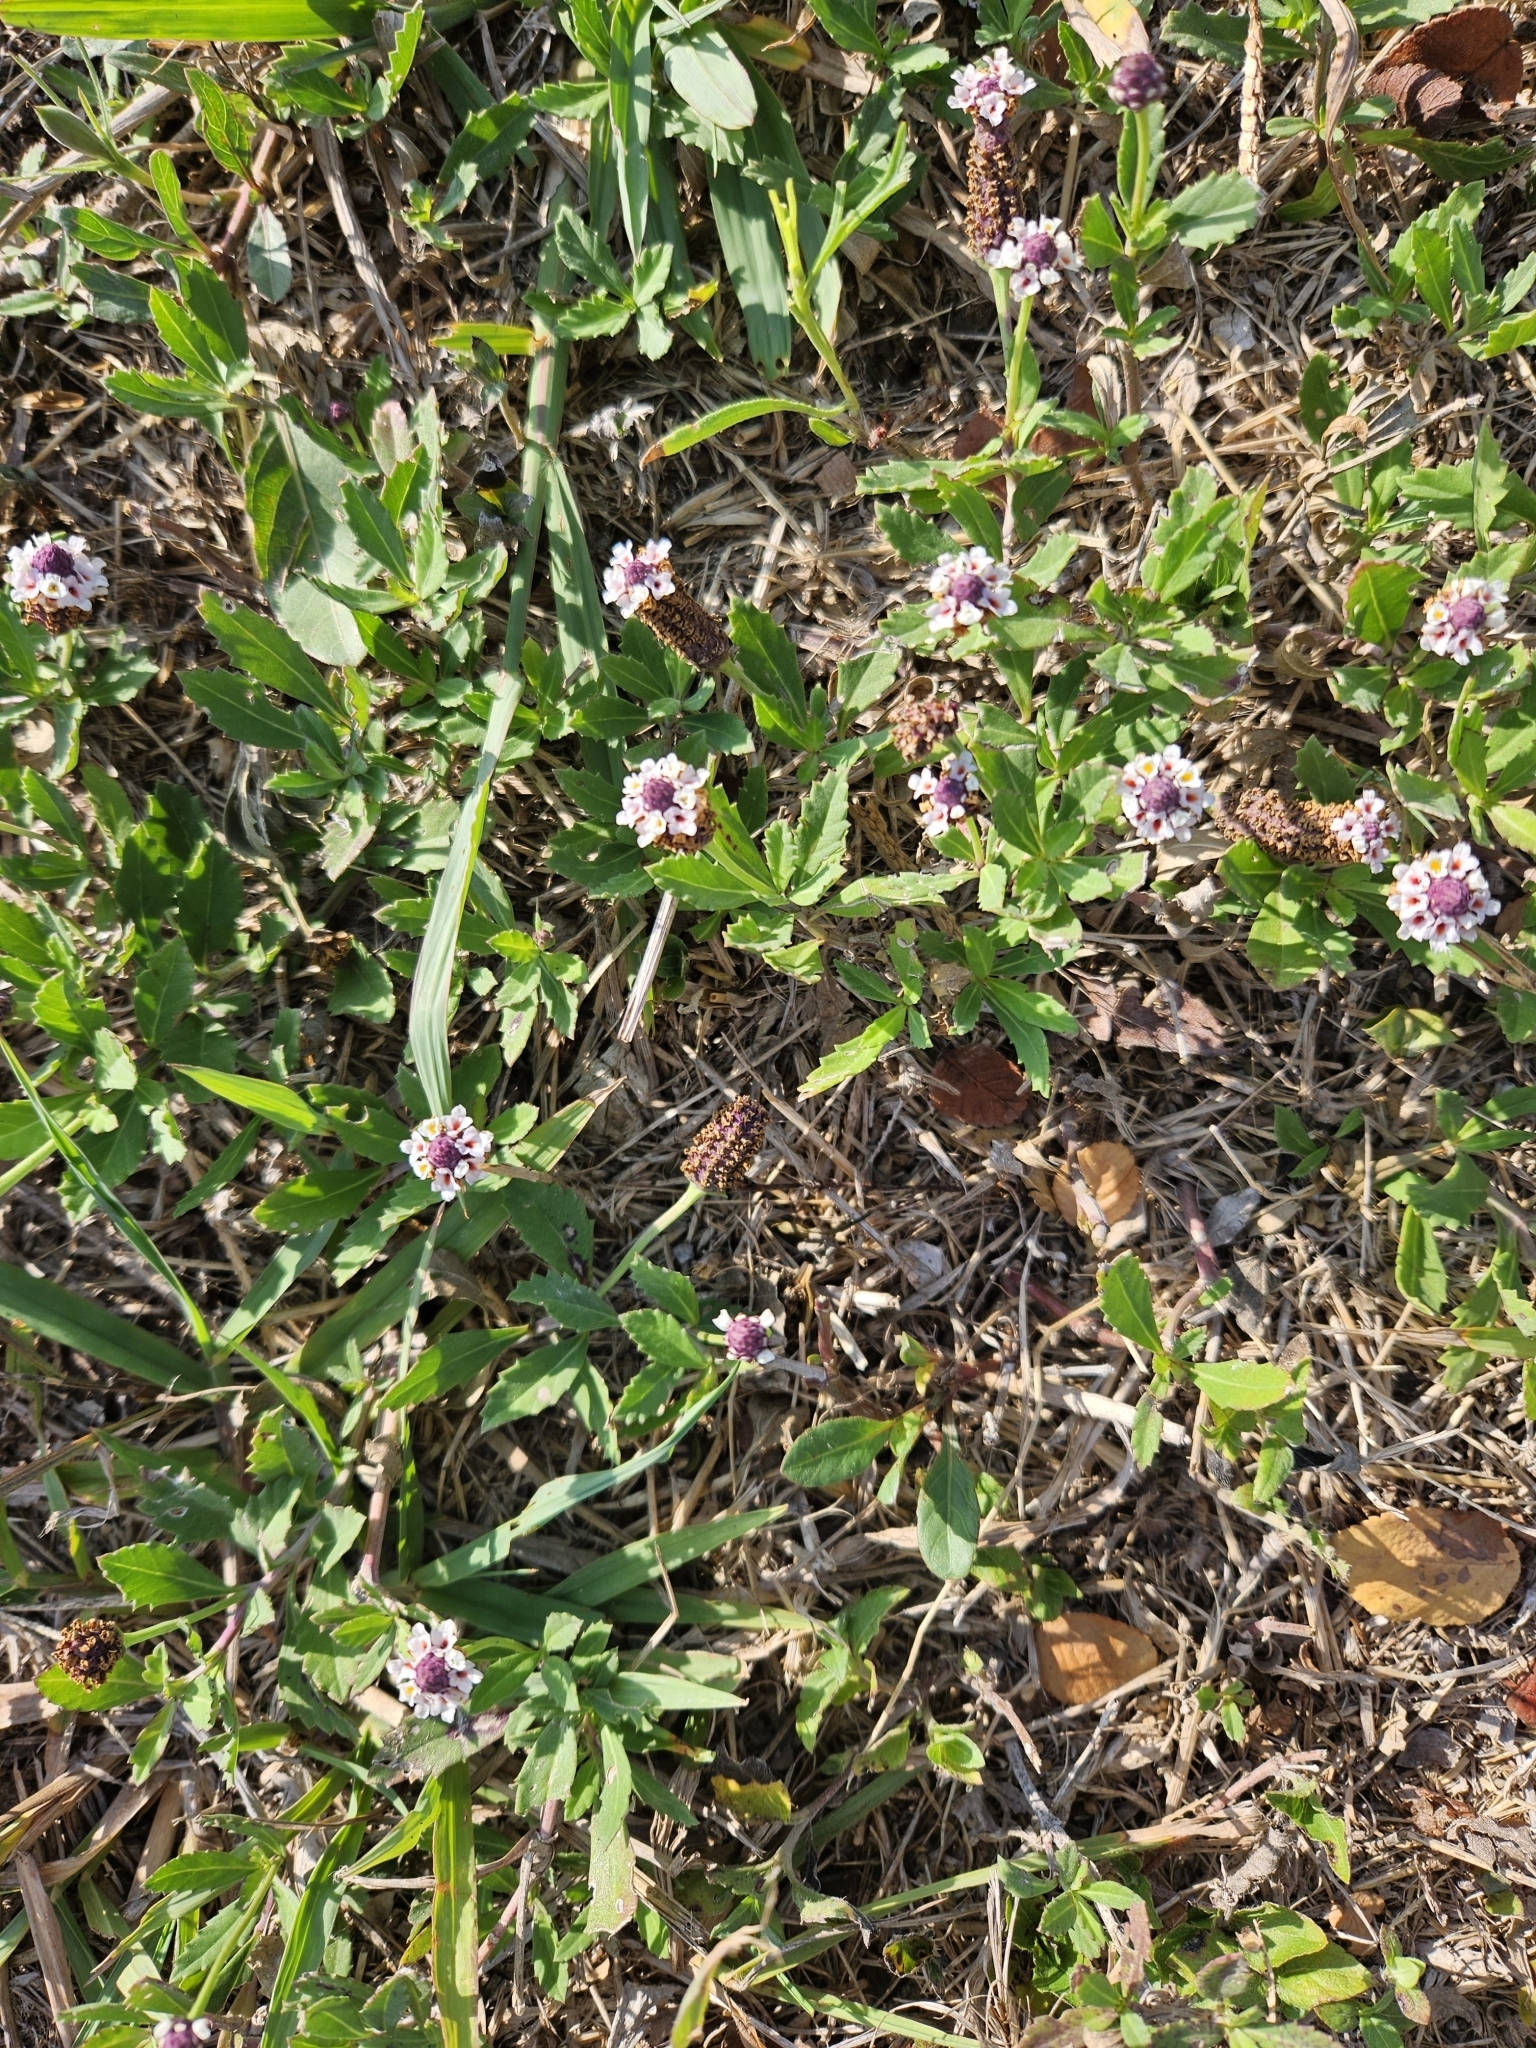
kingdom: Plantae
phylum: Tracheophyta
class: Magnoliopsida
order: Lamiales
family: Verbenaceae
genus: Phyla
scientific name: Phyla nodiflora
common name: Frogfruit
